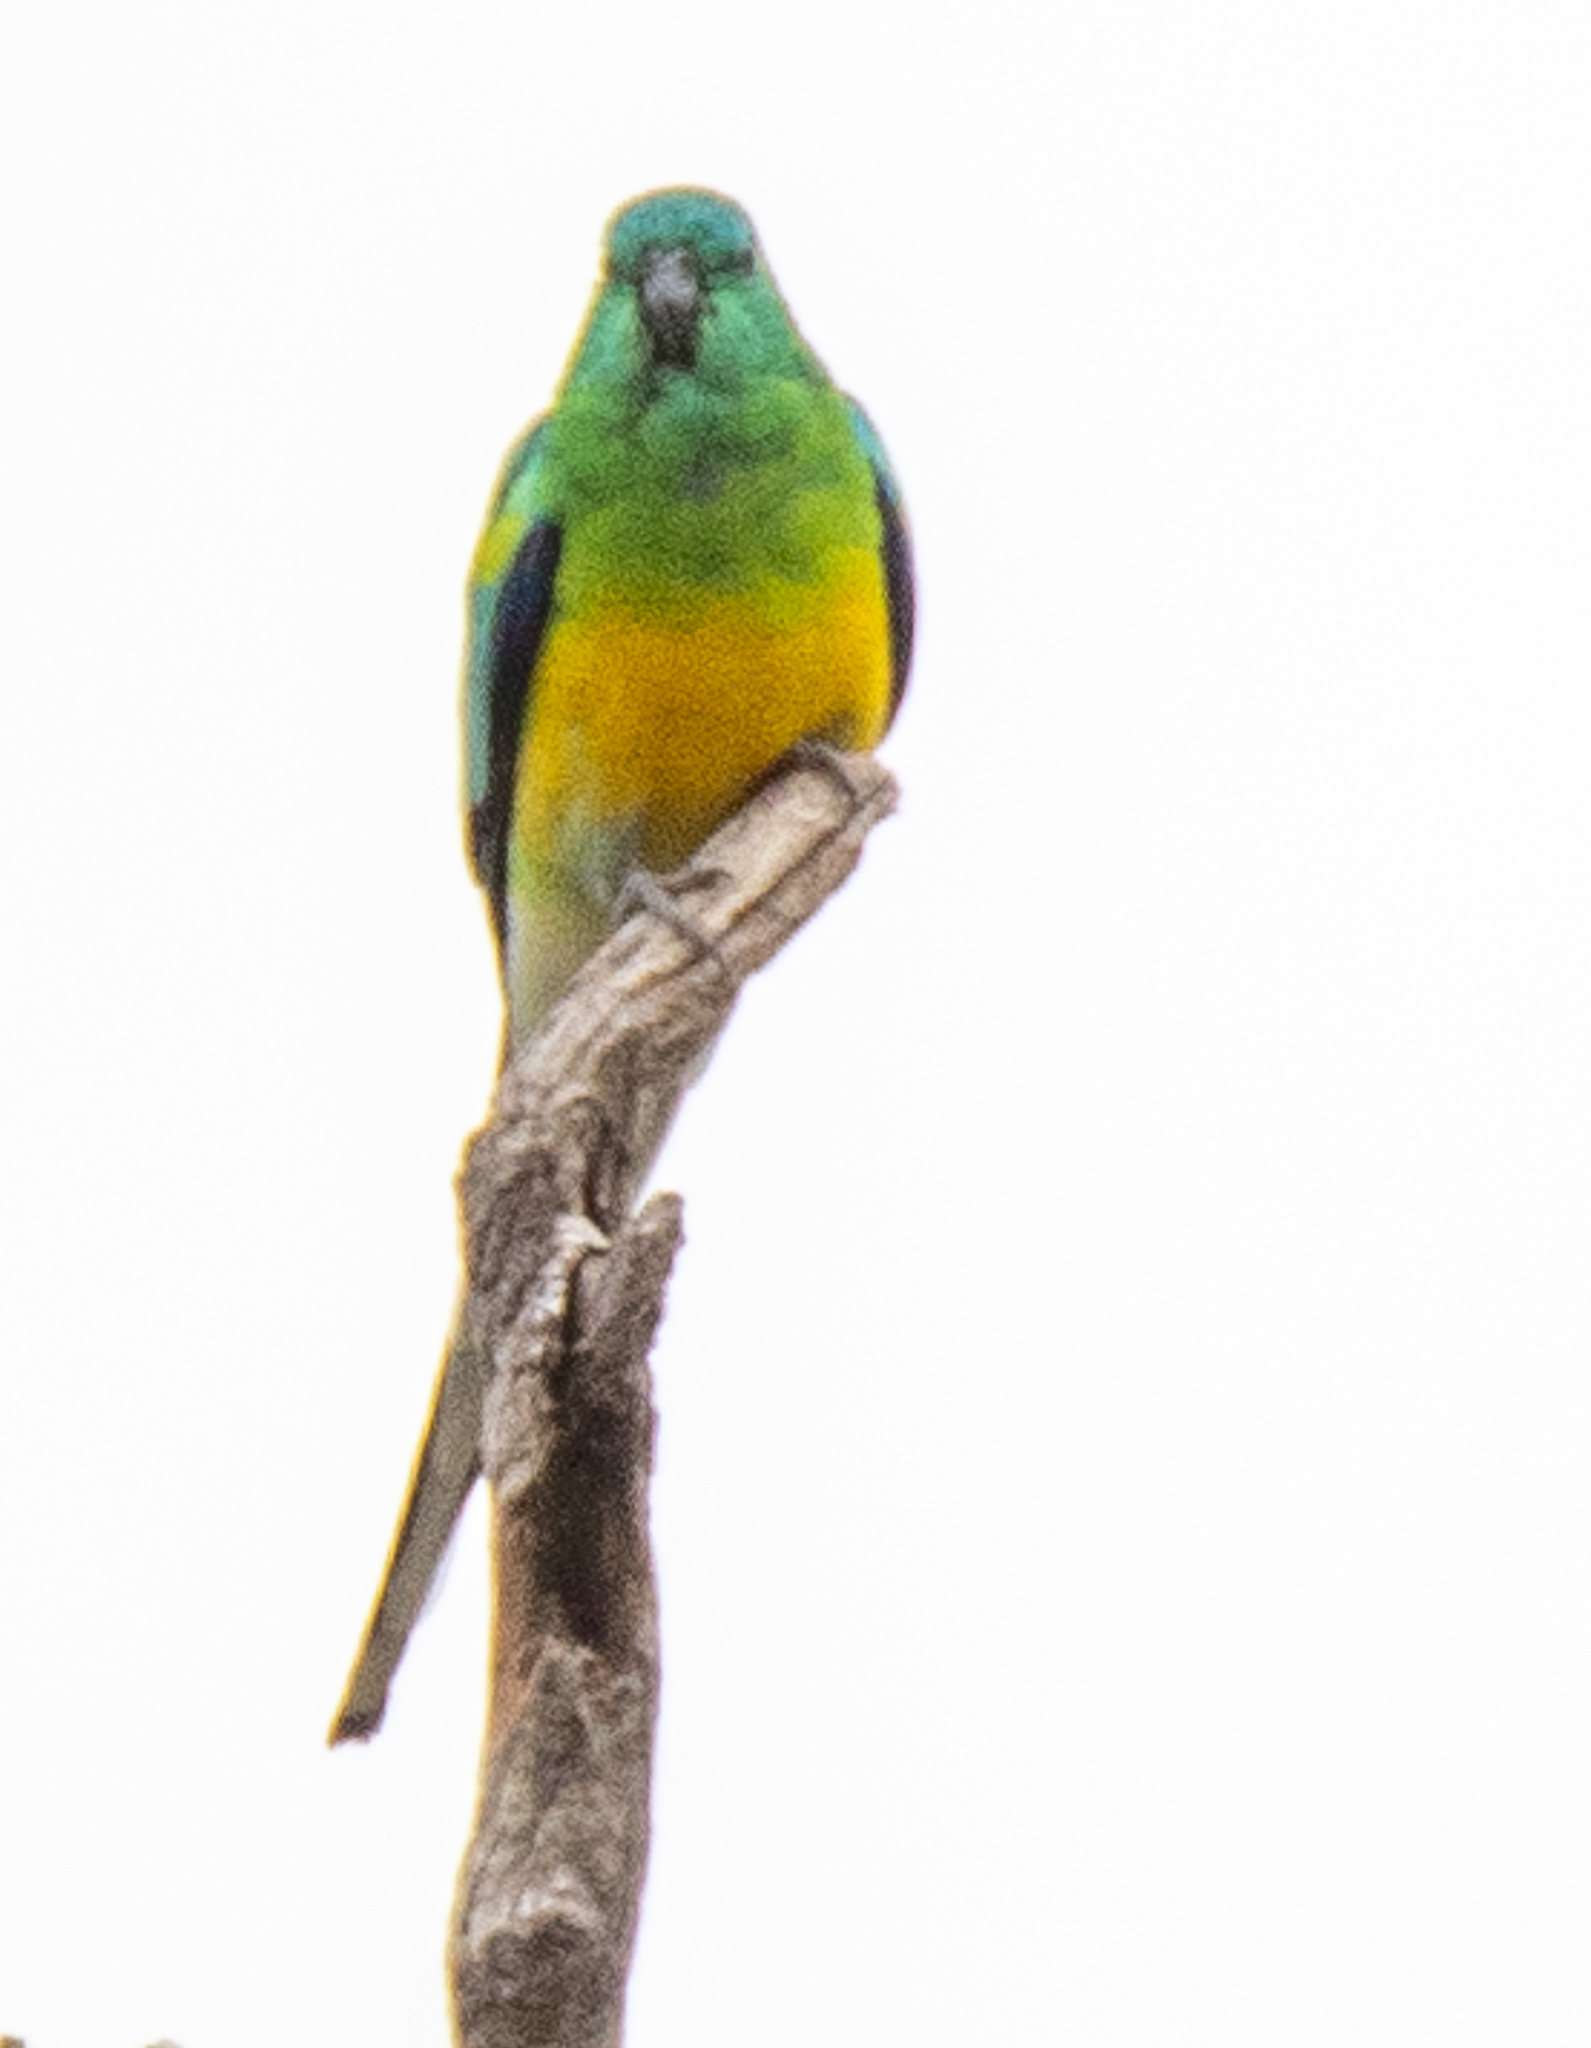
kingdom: Animalia
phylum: Chordata
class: Aves
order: Psittaciformes
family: Psittacidae
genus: Psephotus
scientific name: Psephotus haematonotus
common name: Red-rumped parrot
